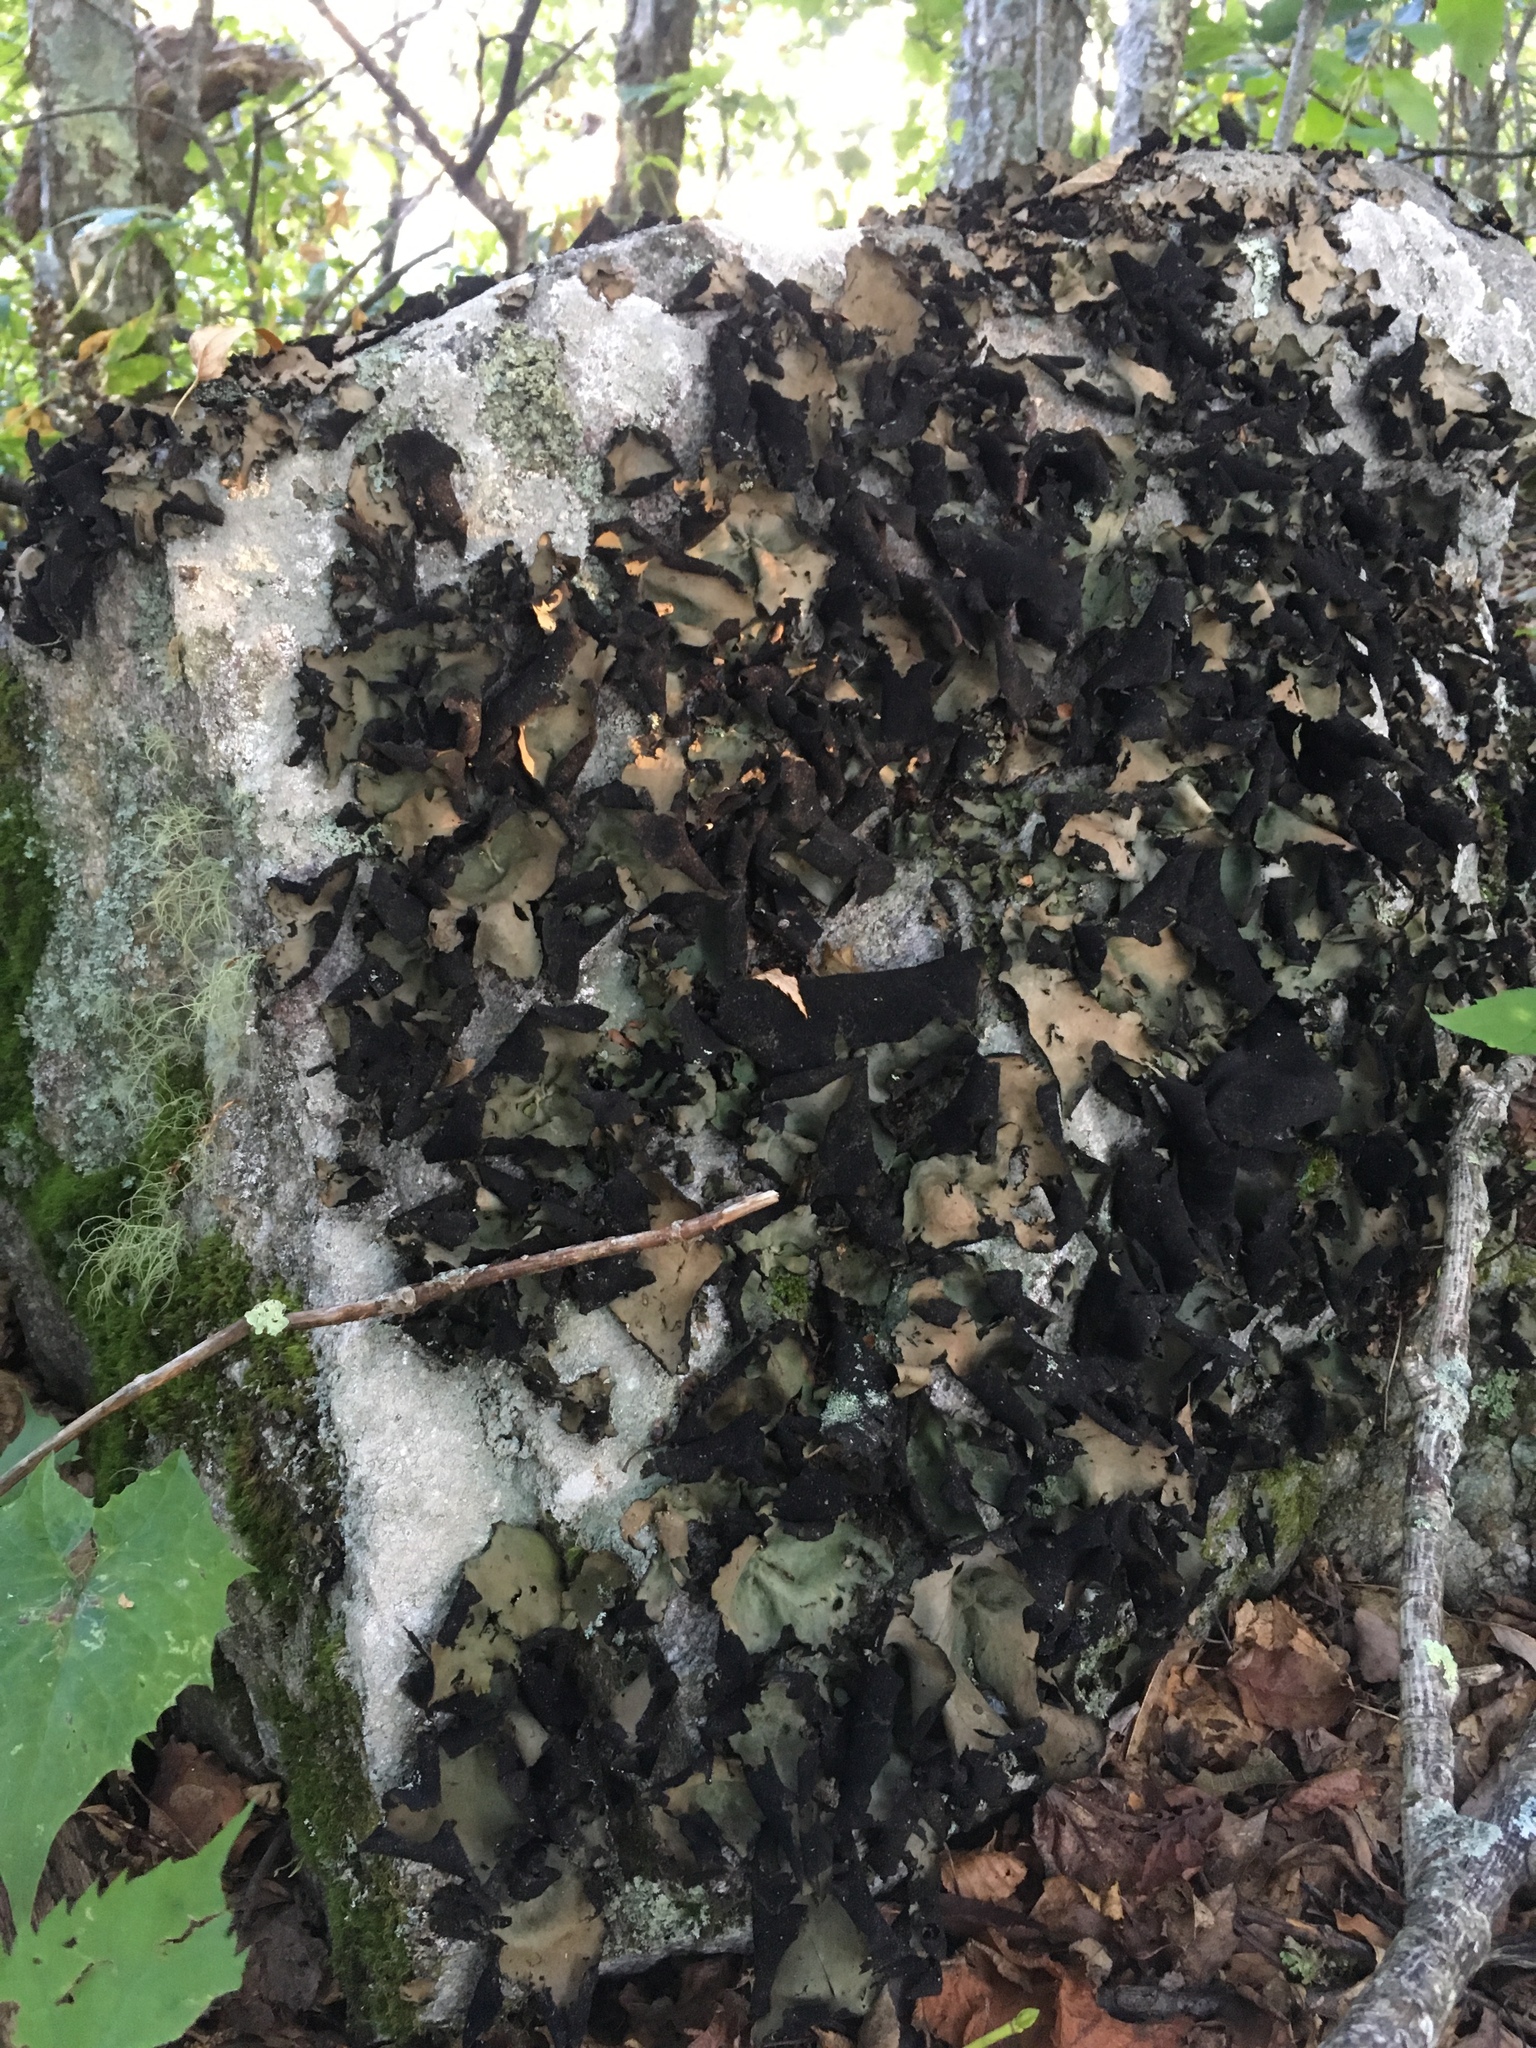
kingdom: Fungi
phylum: Ascomycota
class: Lecanoromycetes
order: Umbilicariales
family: Umbilicariaceae
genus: Umbilicaria
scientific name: Umbilicaria mammulata
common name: Smooth rock tripe
